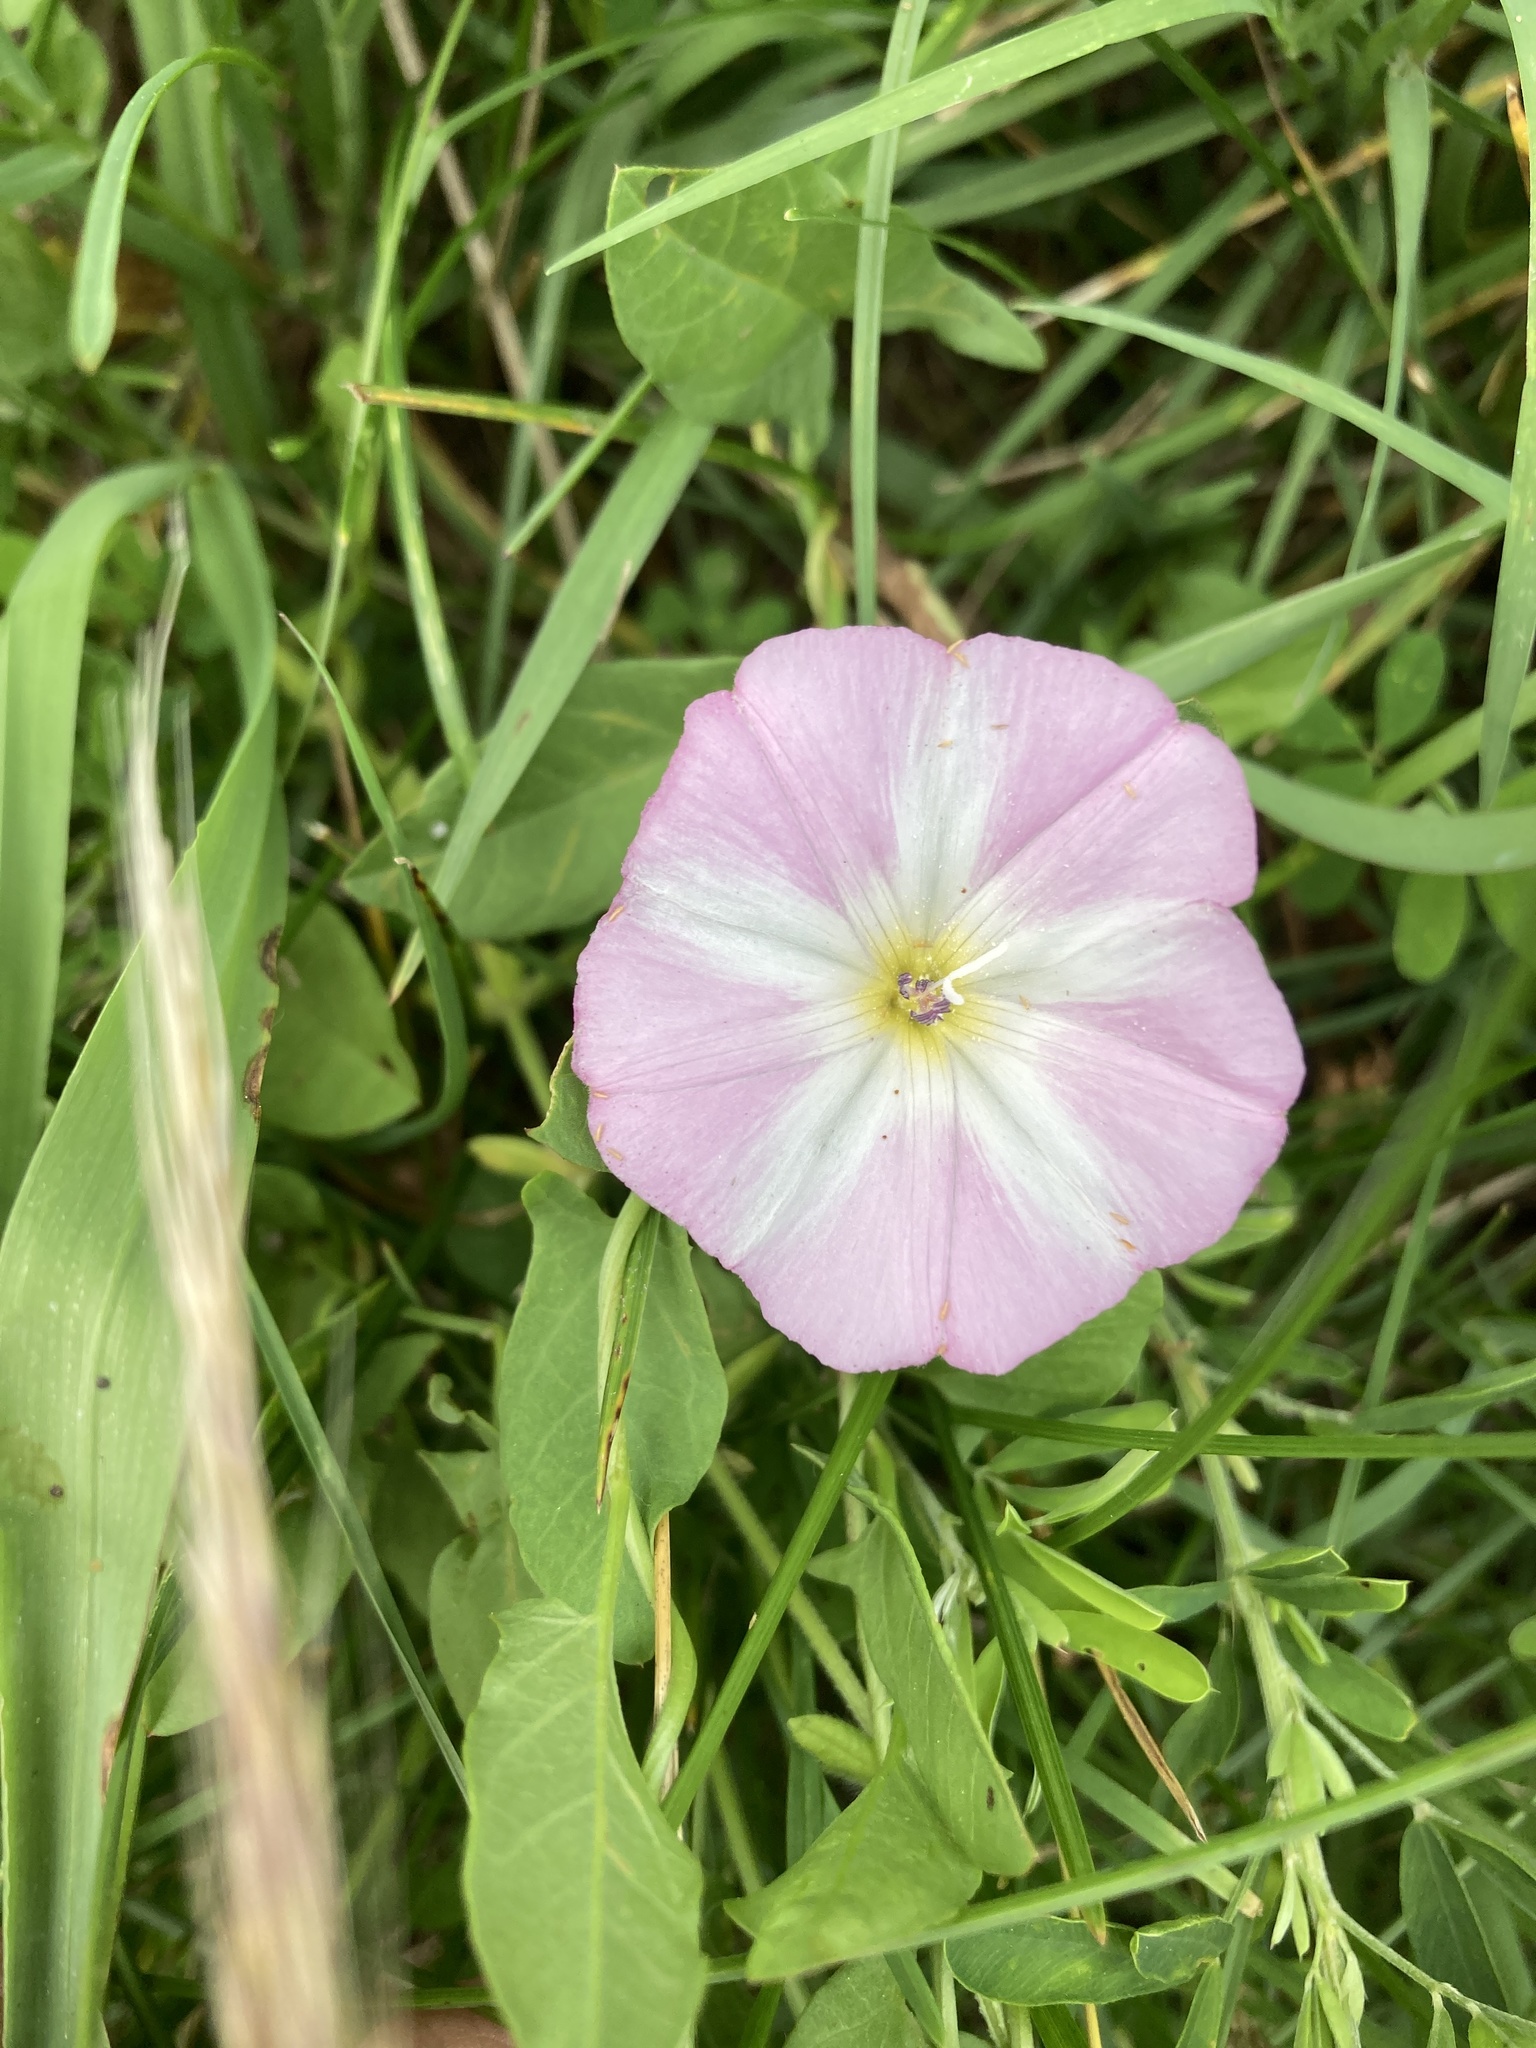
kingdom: Plantae
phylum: Tracheophyta
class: Magnoliopsida
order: Solanales
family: Convolvulaceae
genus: Convolvulus
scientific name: Convolvulus arvensis
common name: Field bindweed
